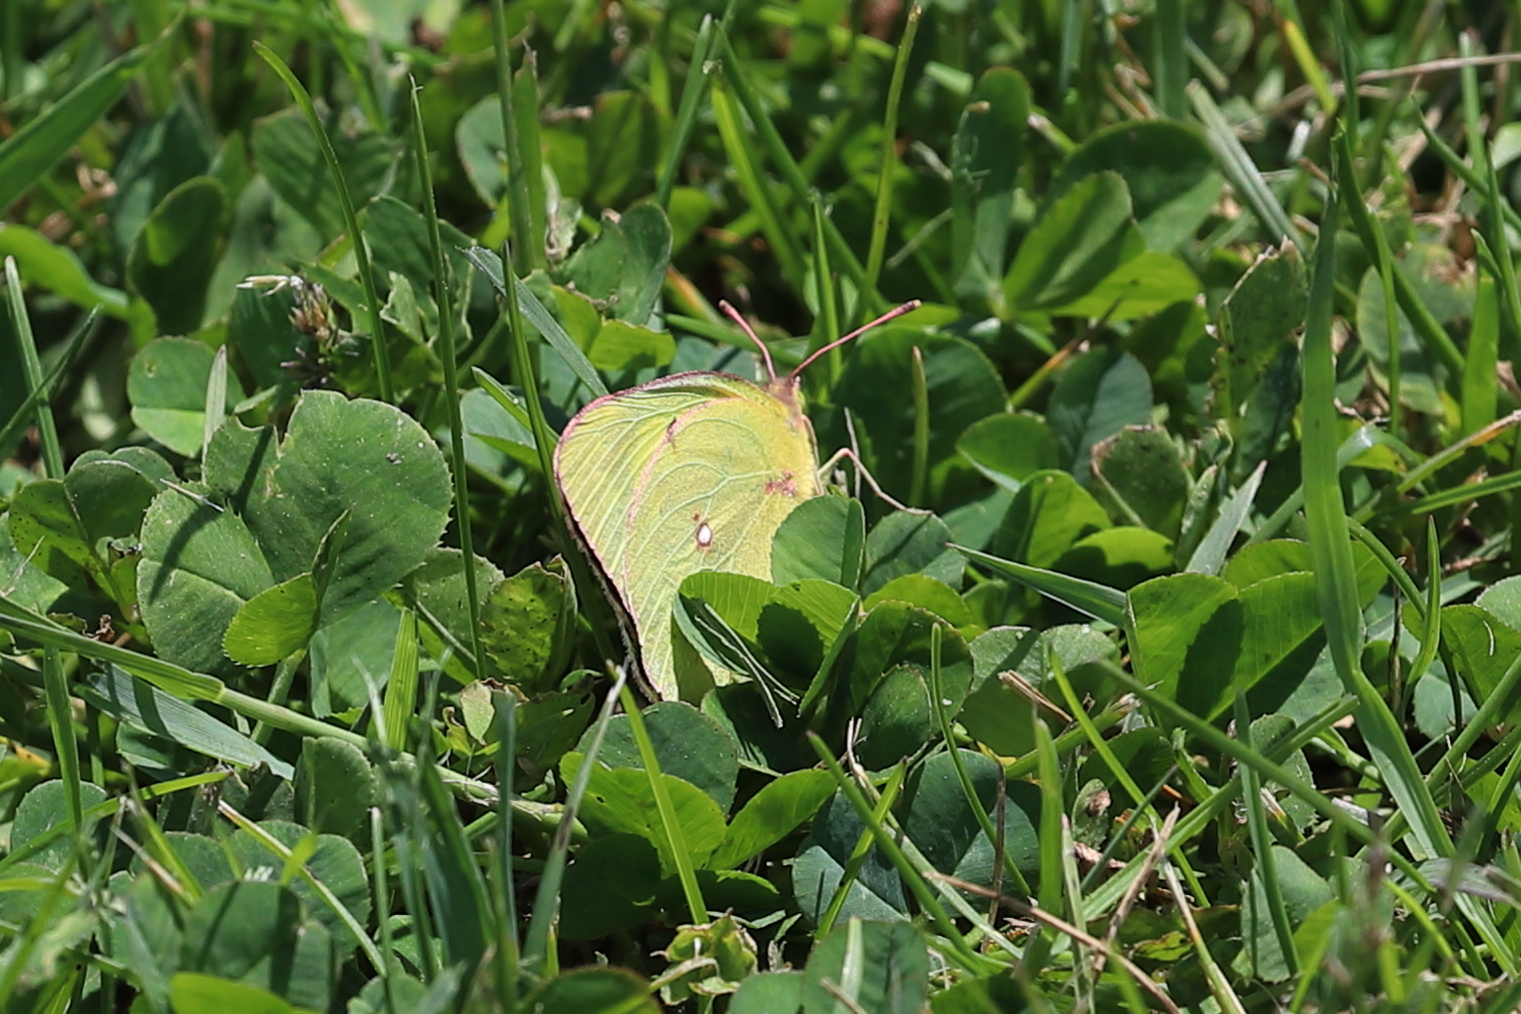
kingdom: Animalia
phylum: Arthropoda
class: Insecta
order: Lepidoptera
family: Pieridae
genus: Colias
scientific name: Colias philodice
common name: Clouded sulphur
